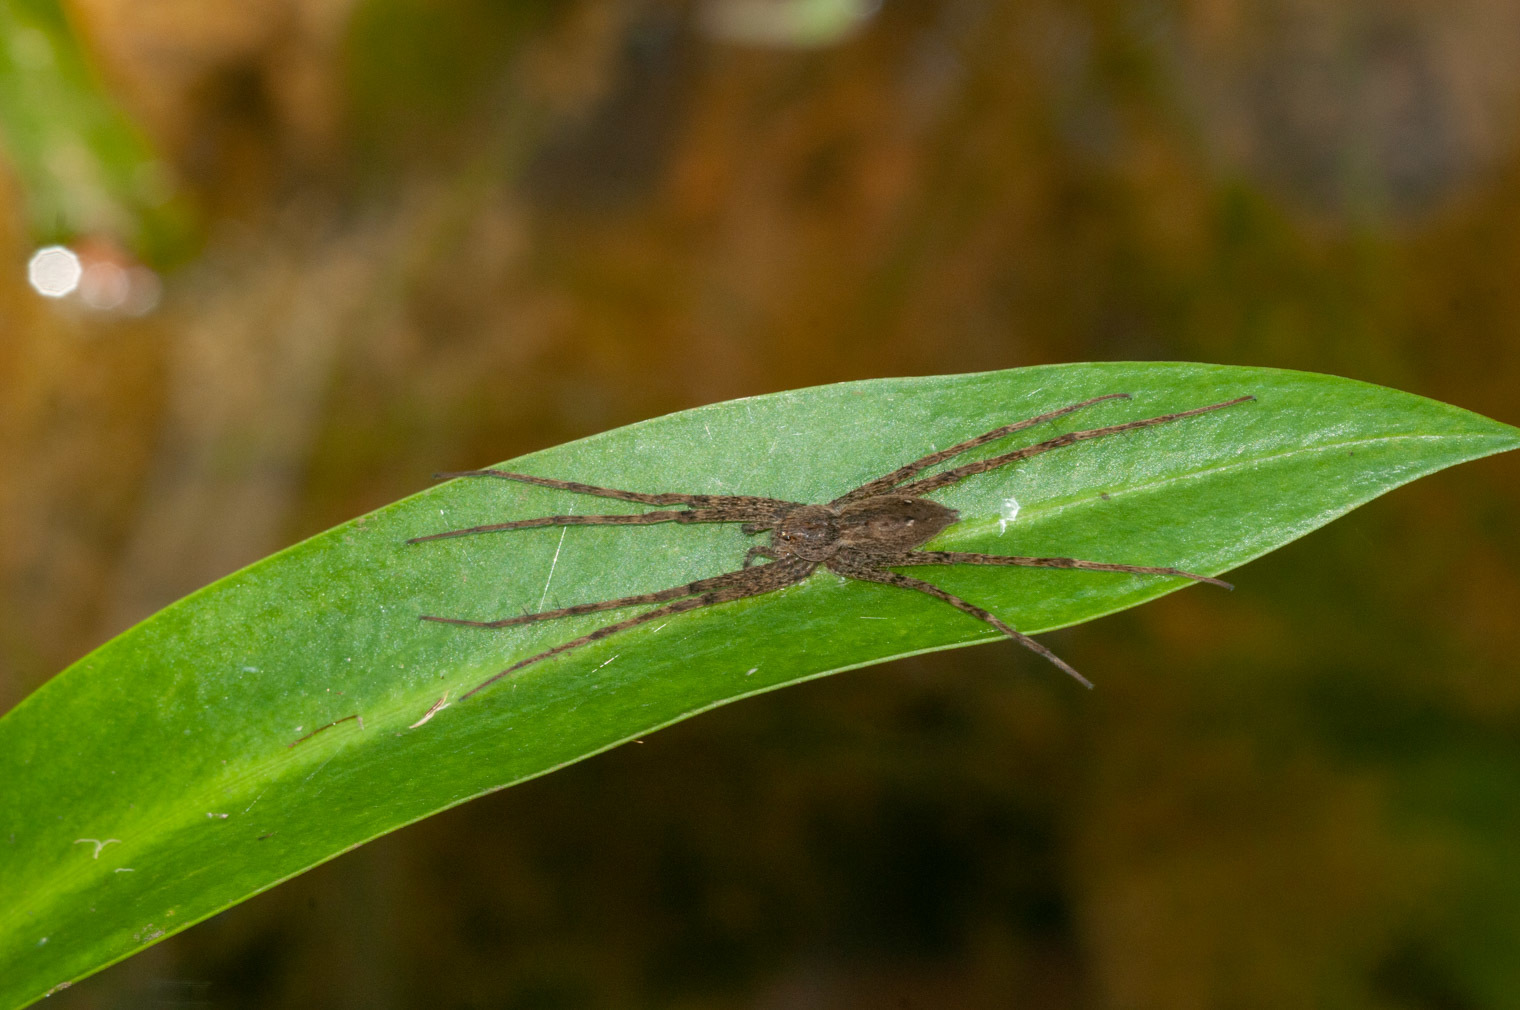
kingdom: Animalia
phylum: Arthropoda
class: Arachnida
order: Araneae
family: Pisauridae
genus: Megadolomedes
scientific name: Megadolomedes trux
